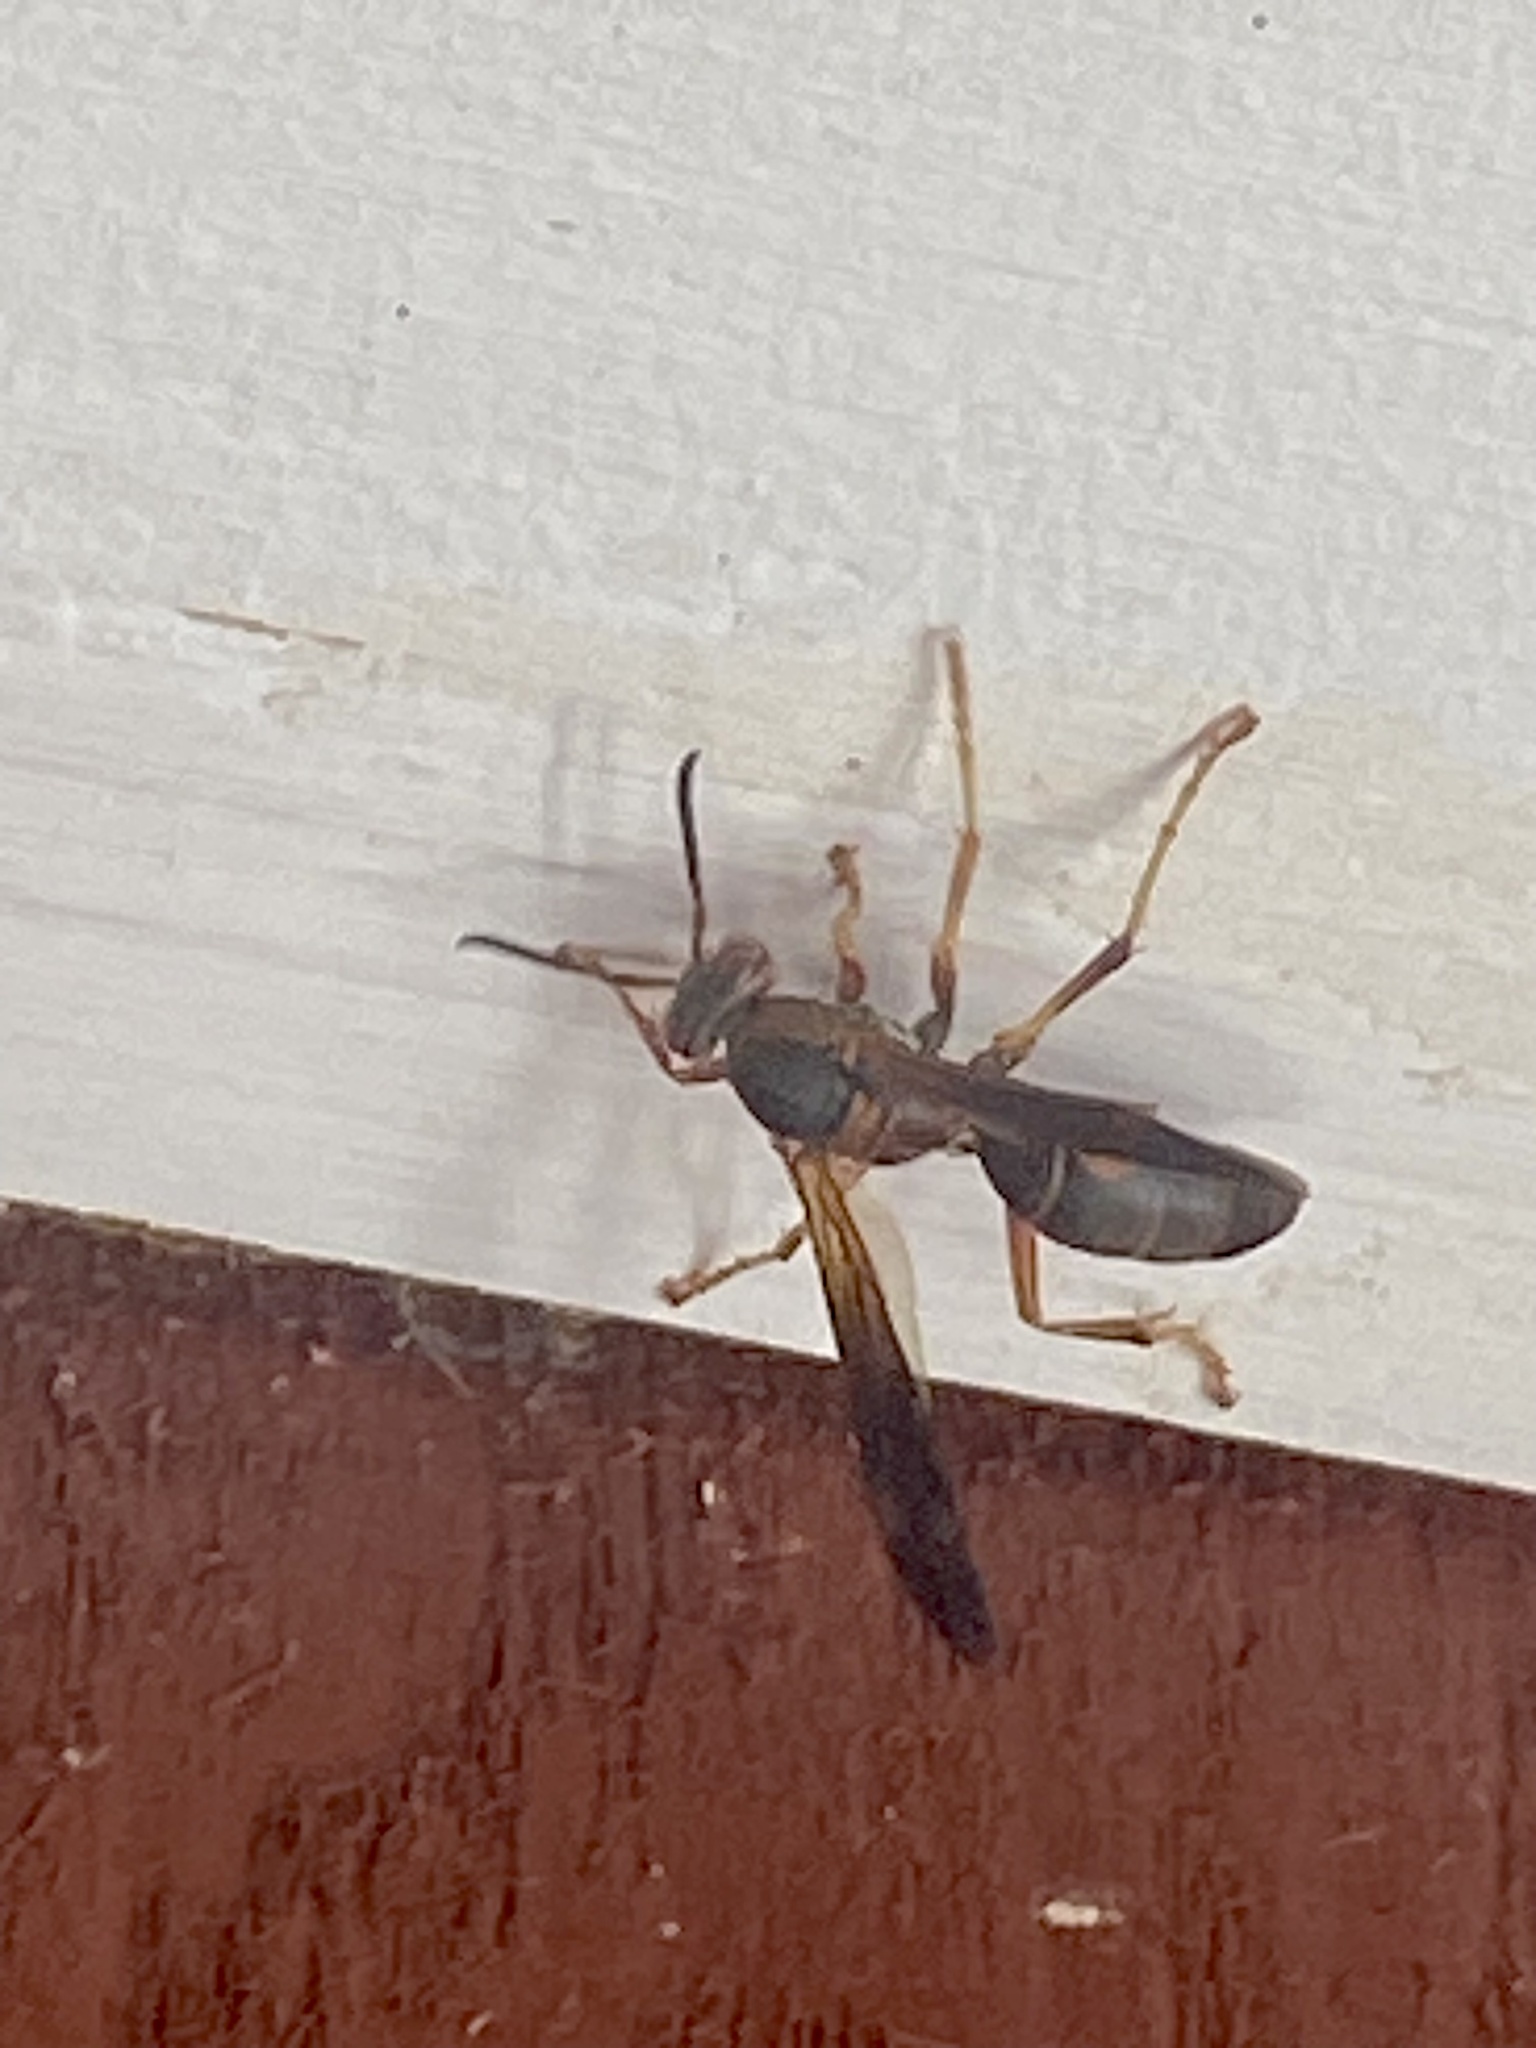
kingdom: Animalia
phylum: Arthropoda
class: Insecta
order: Hymenoptera
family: Eumenidae
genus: Polistes
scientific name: Polistes fuscatus
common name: Dark paper wasp
